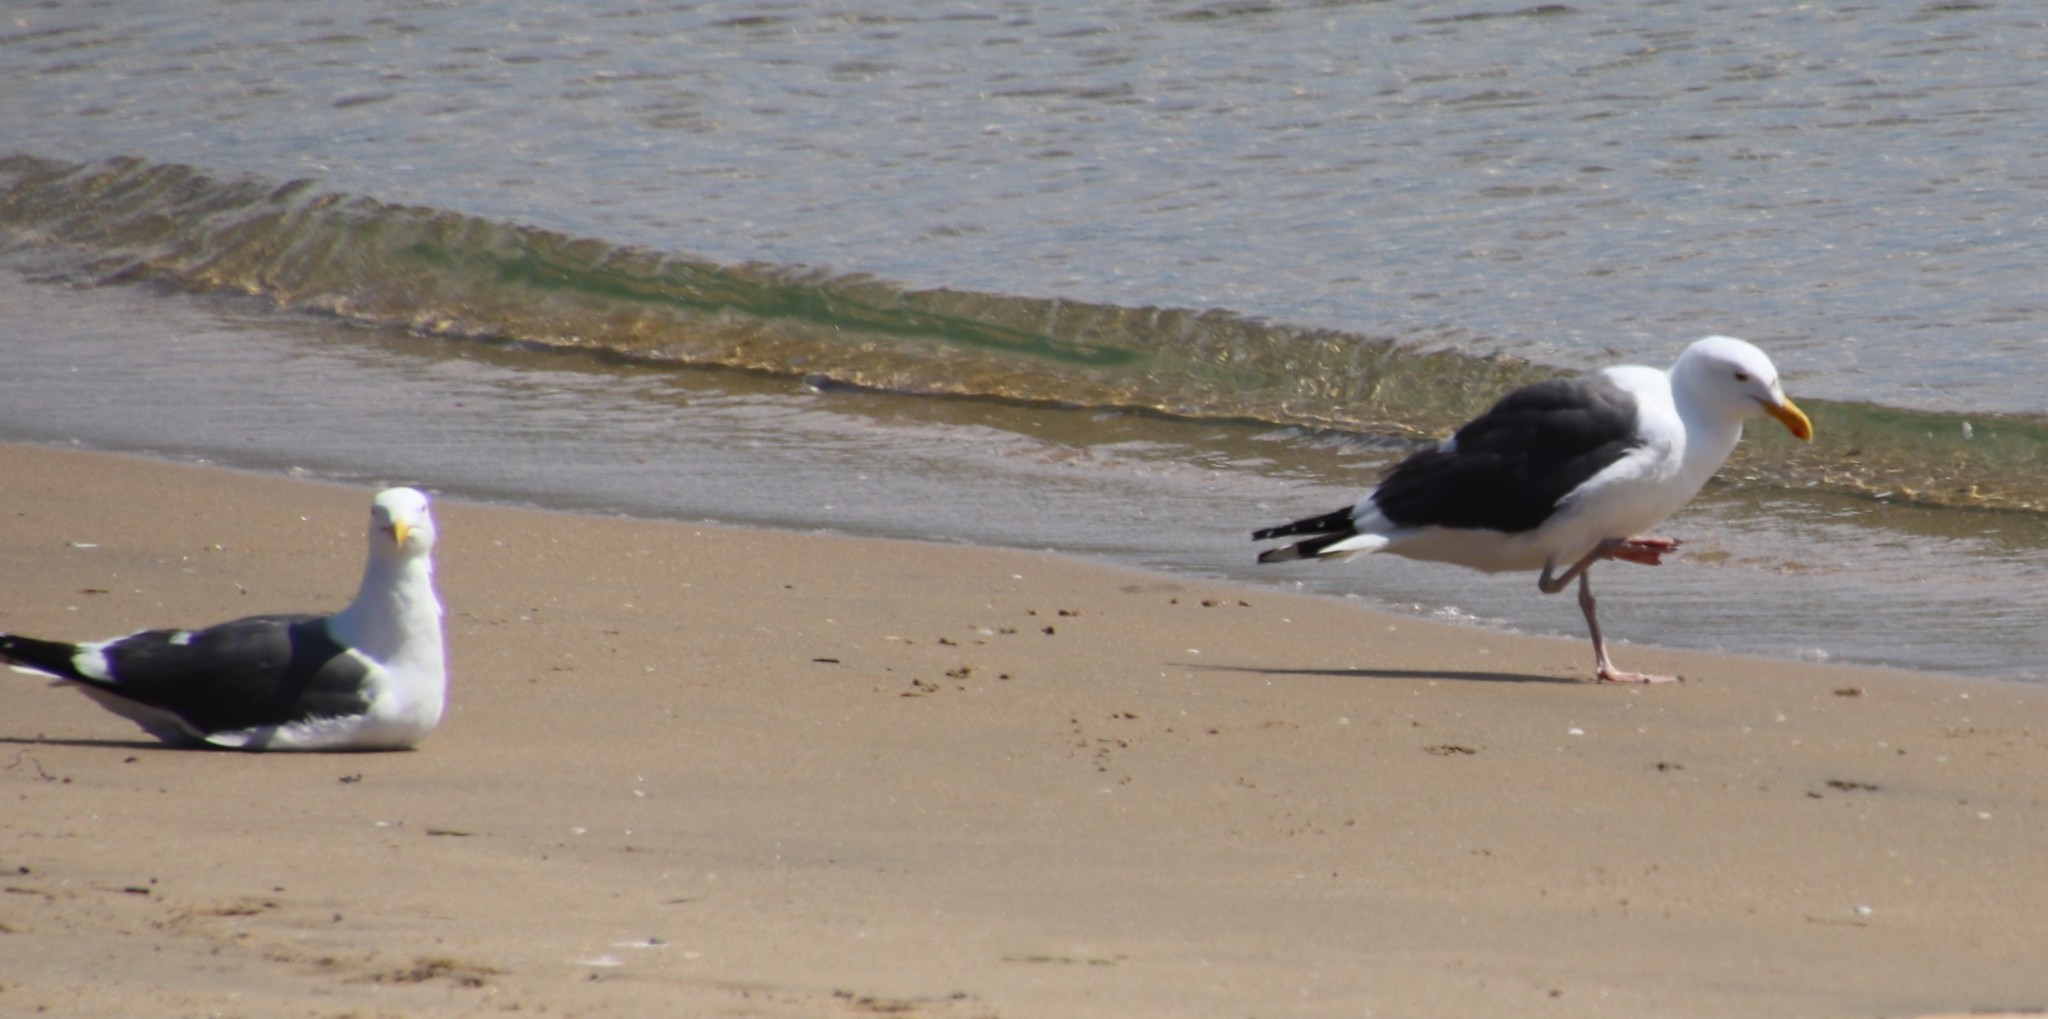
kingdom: Animalia
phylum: Chordata
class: Aves
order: Charadriiformes
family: Laridae
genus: Larus
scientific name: Larus occidentalis
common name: Western gull
